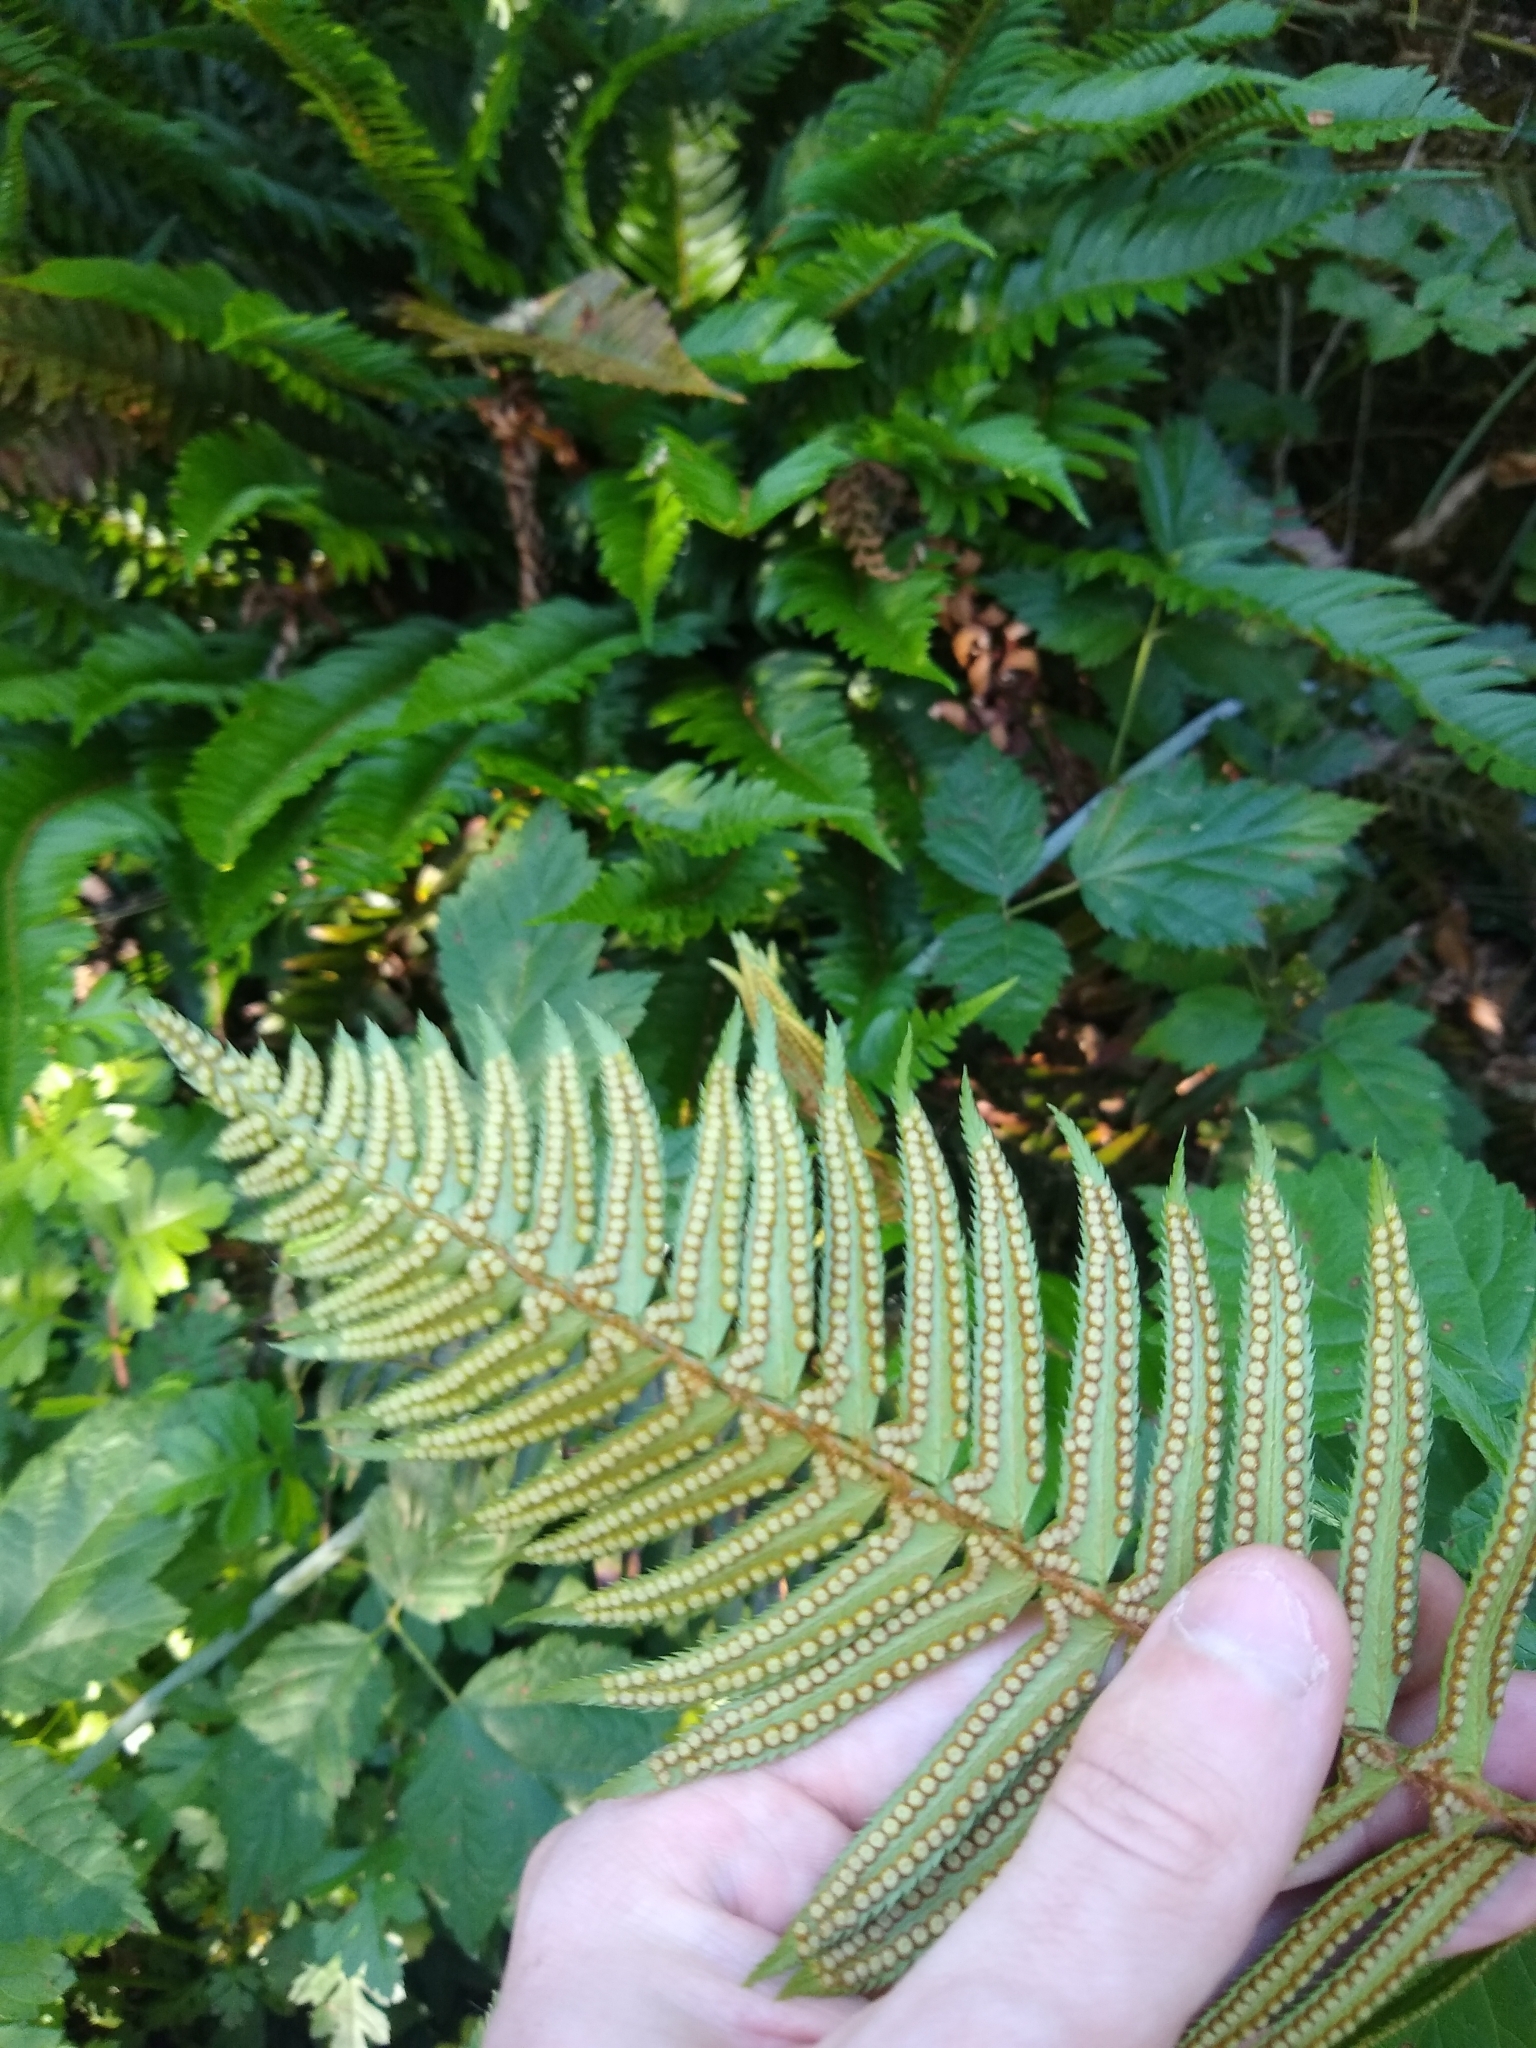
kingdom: Plantae
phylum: Tracheophyta
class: Polypodiopsida
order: Polypodiales
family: Dryopteridaceae
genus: Polystichum
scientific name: Polystichum munitum
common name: Western sword-fern
